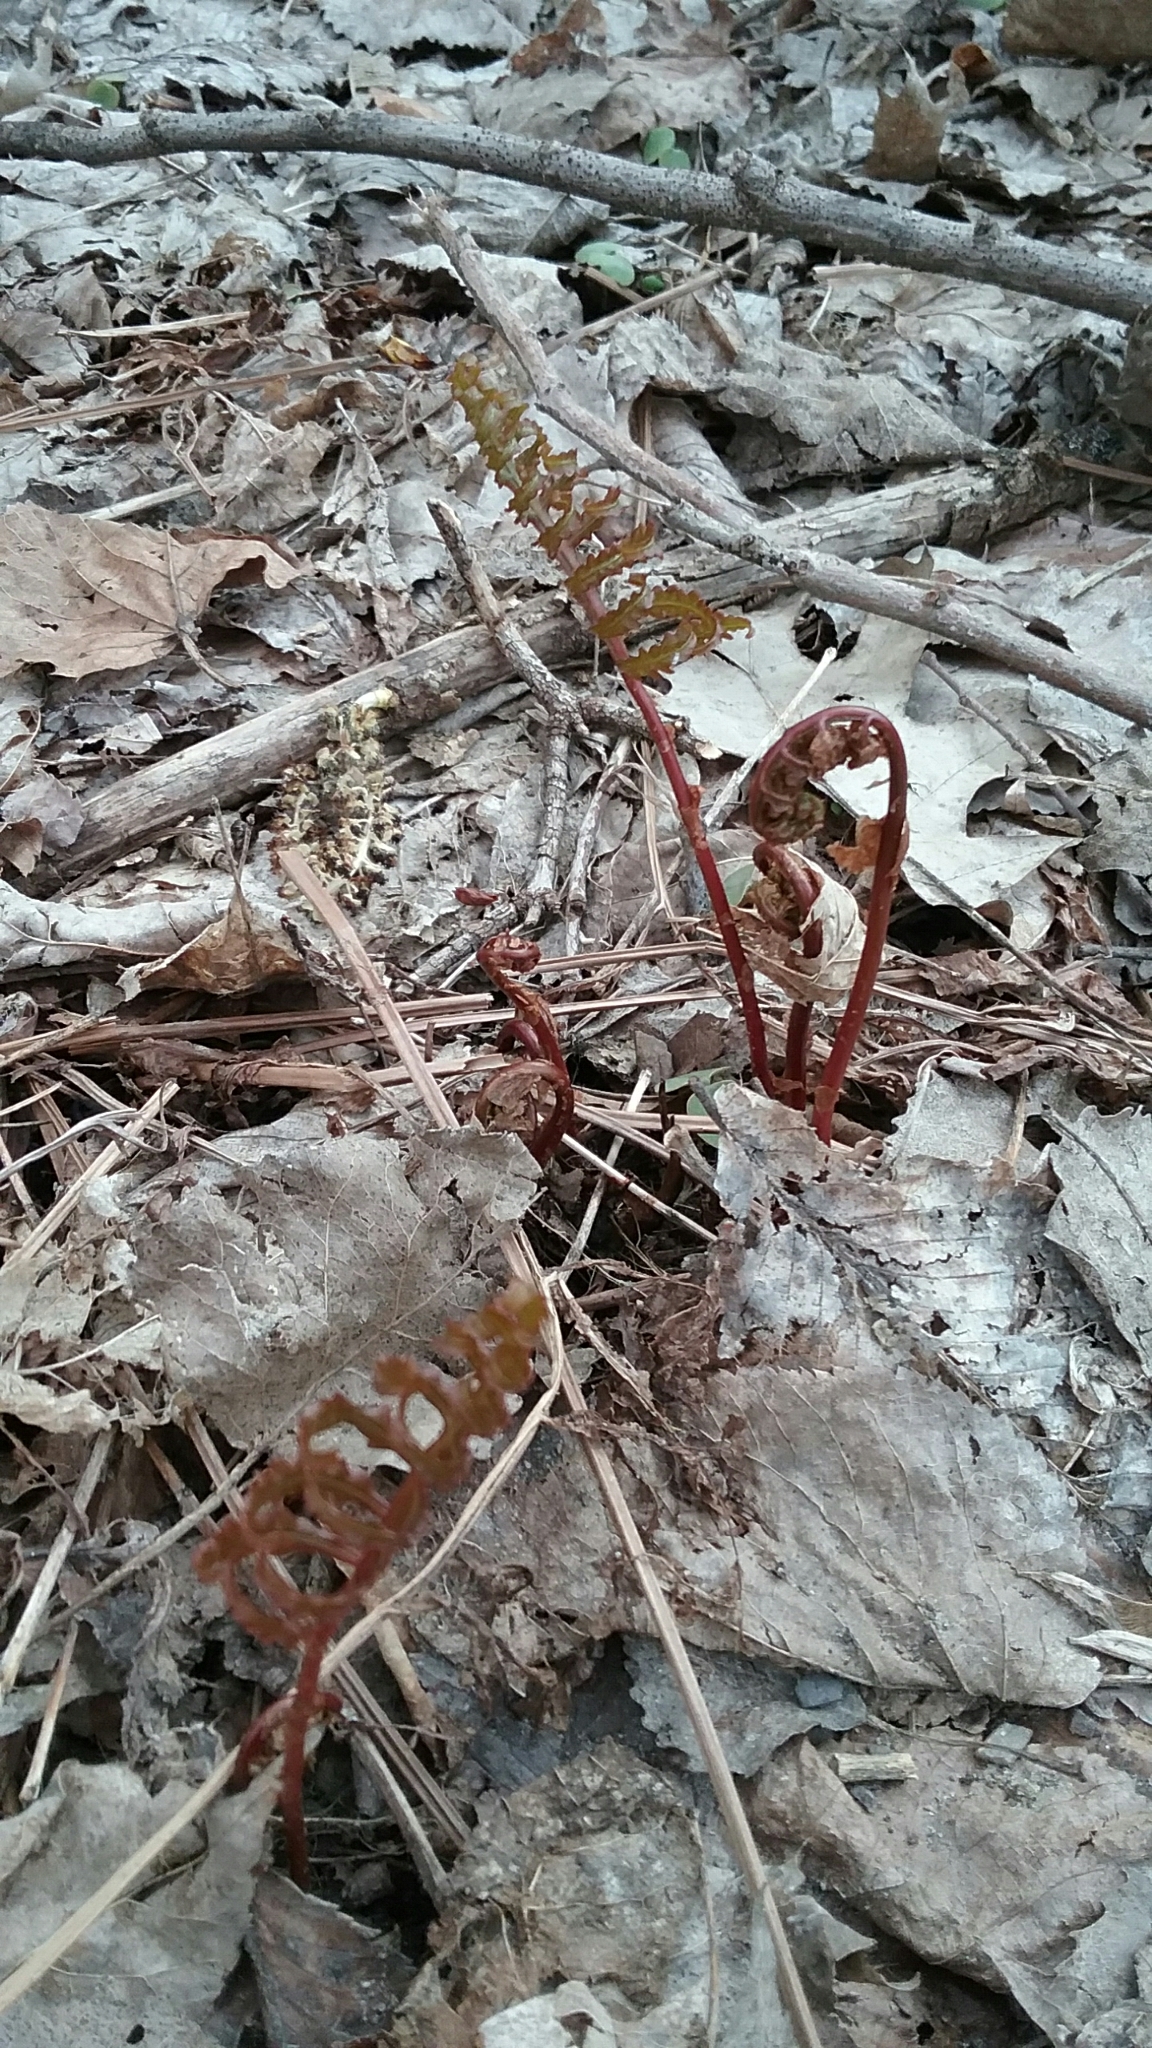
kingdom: Plantae
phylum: Tracheophyta
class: Polypodiopsida
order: Polypodiales
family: Onocleaceae
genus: Onoclea
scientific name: Onoclea sensibilis
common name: Sensitive fern
